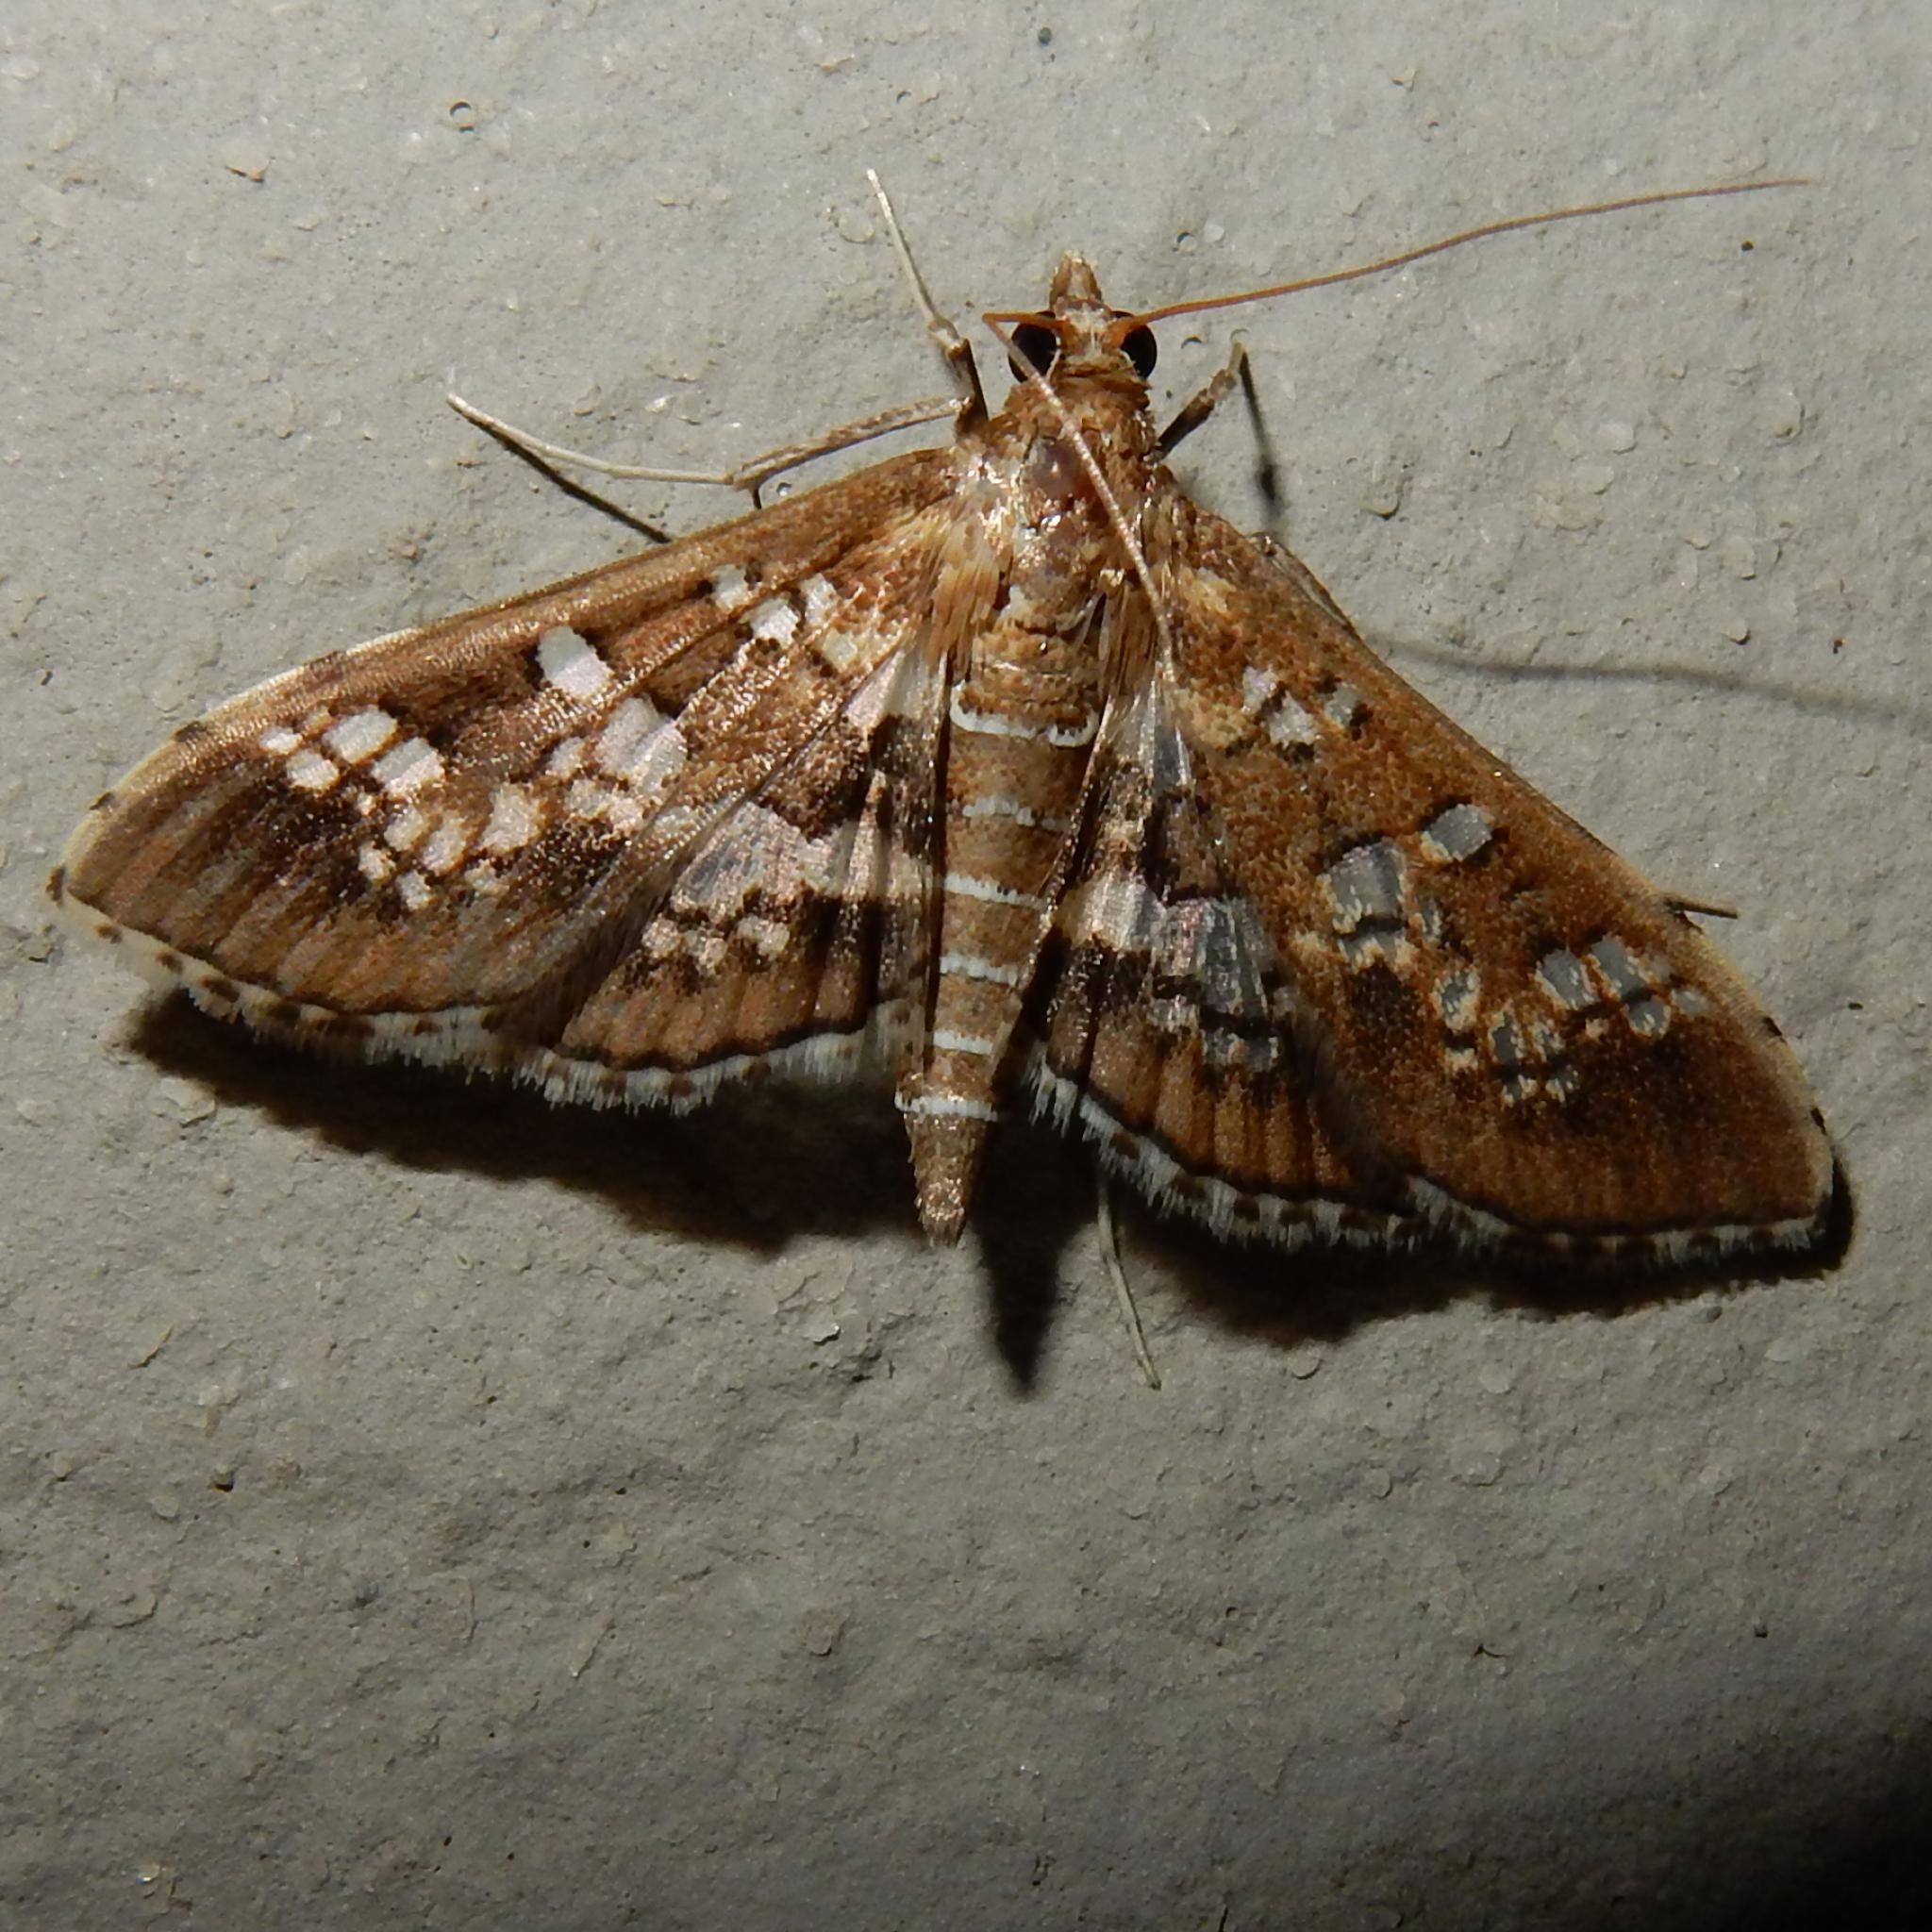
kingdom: Animalia
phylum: Arthropoda
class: Insecta
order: Lepidoptera
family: Crambidae
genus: Sameodes
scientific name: Sameodes cancellalis
